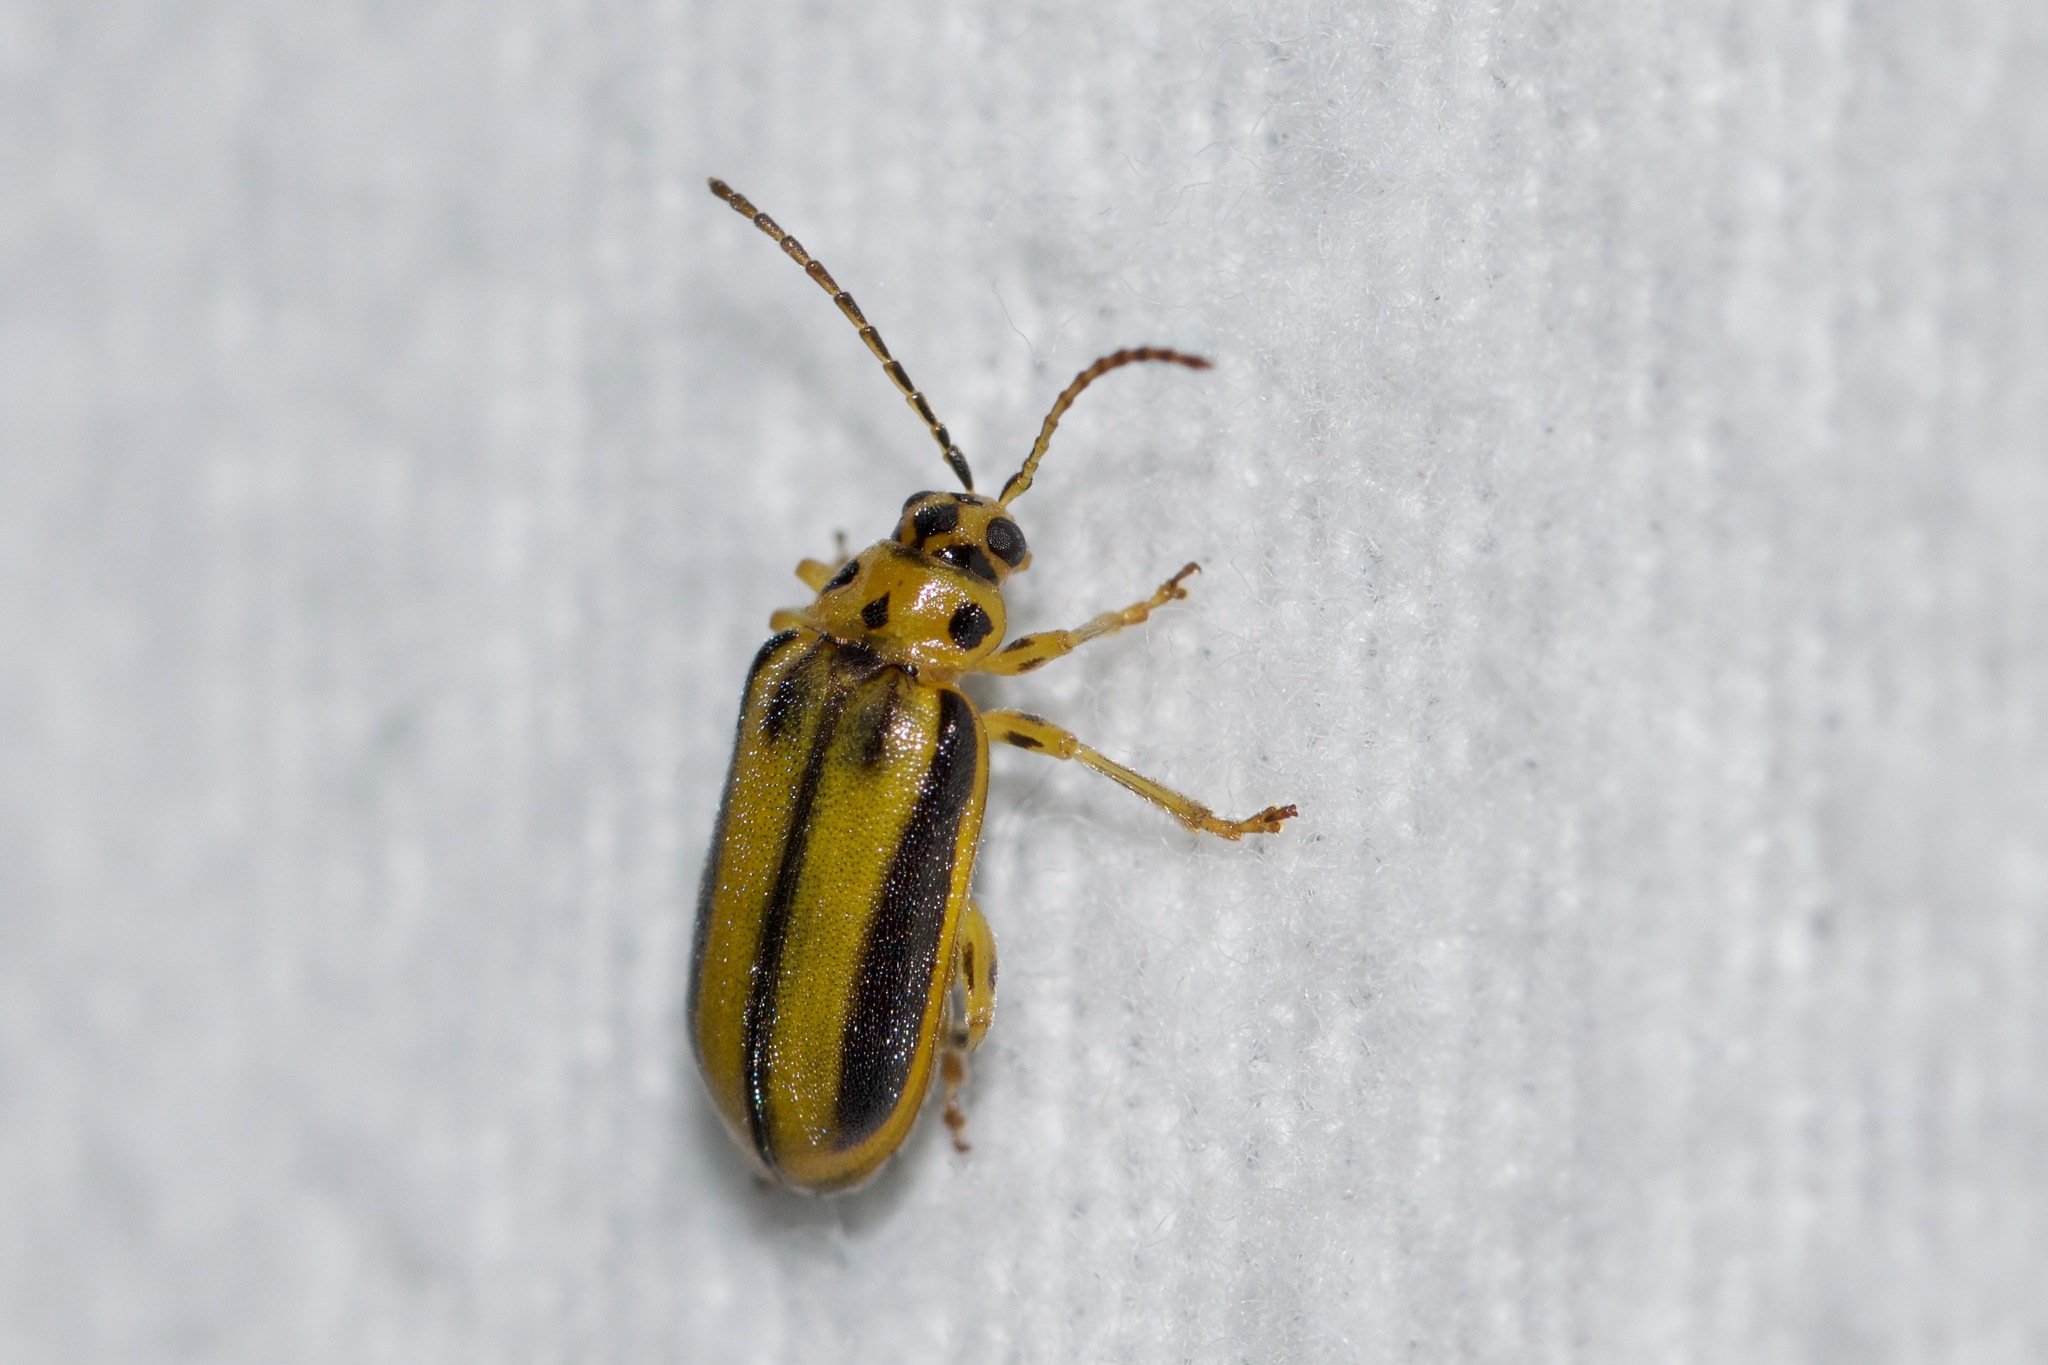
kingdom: Animalia
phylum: Arthropoda
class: Insecta
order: Coleoptera
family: Chrysomelidae
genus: Xanthogaleruca
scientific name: Xanthogaleruca luteola
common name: Elm leaf beetle
